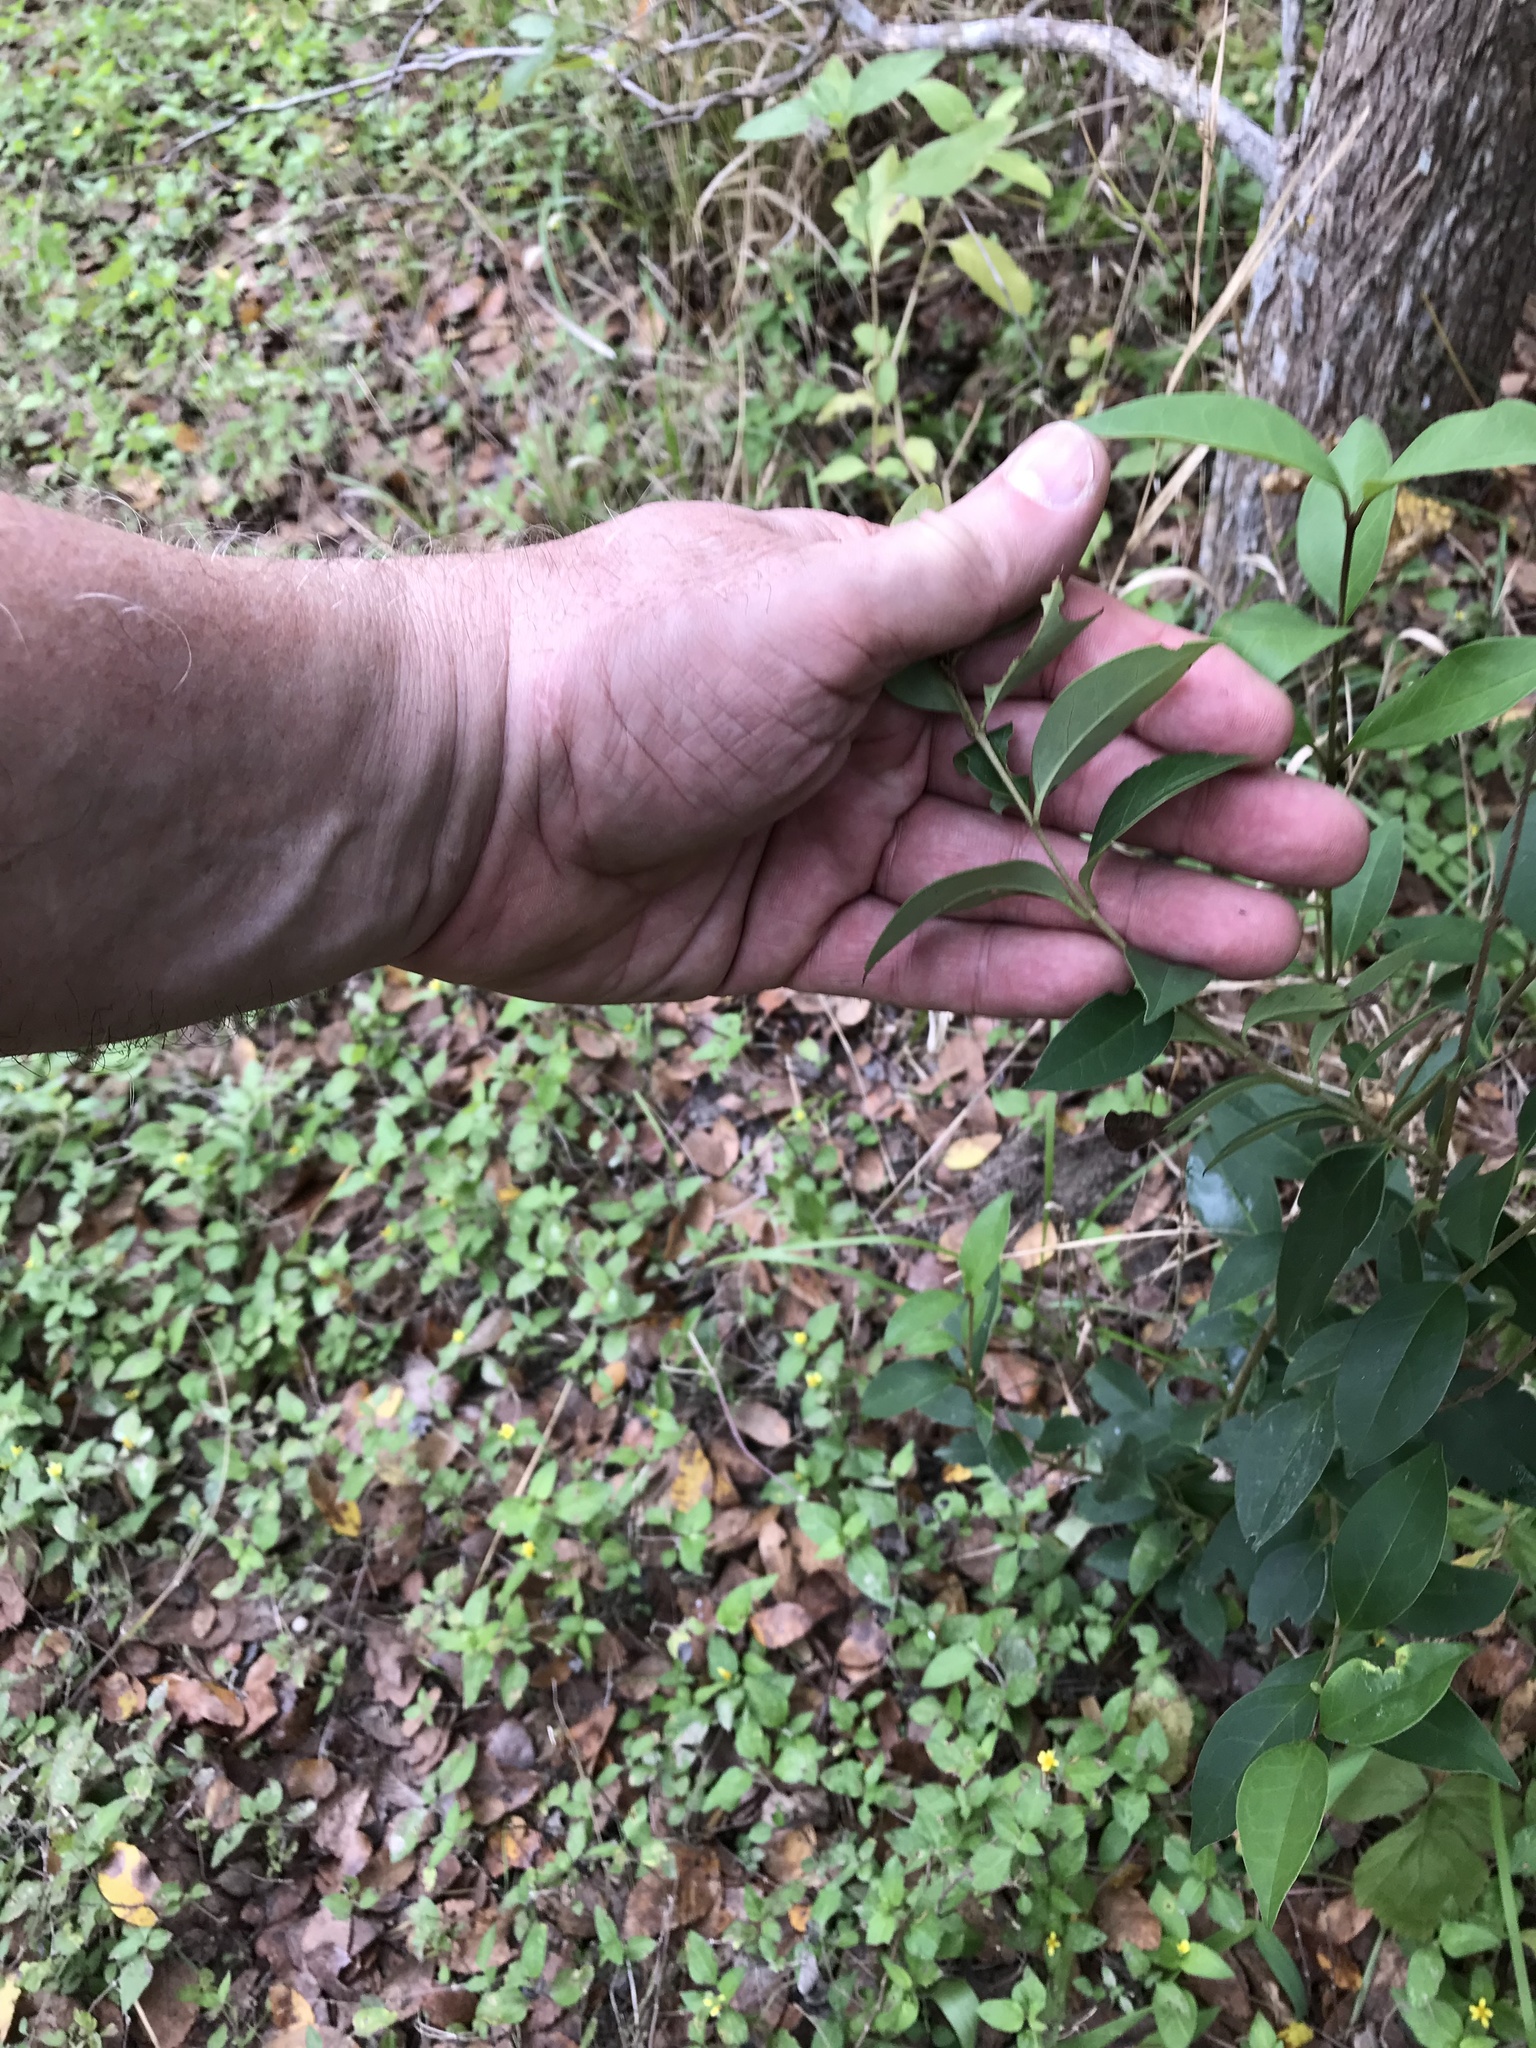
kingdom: Plantae
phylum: Tracheophyta
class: Magnoliopsida
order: Lamiales
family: Oleaceae
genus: Ligustrum
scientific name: Ligustrum lucidum
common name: Glossy privet
